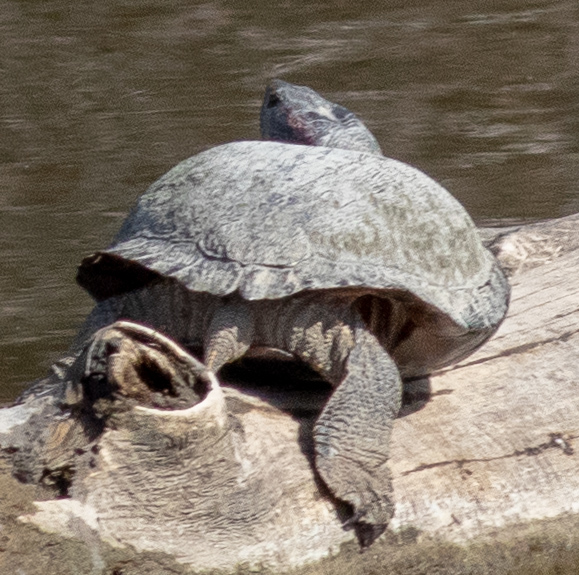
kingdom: Animalia
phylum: Chordata
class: Testudines
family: Emydidae
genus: Trachemys
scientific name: Trachemys scripta
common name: Slider
